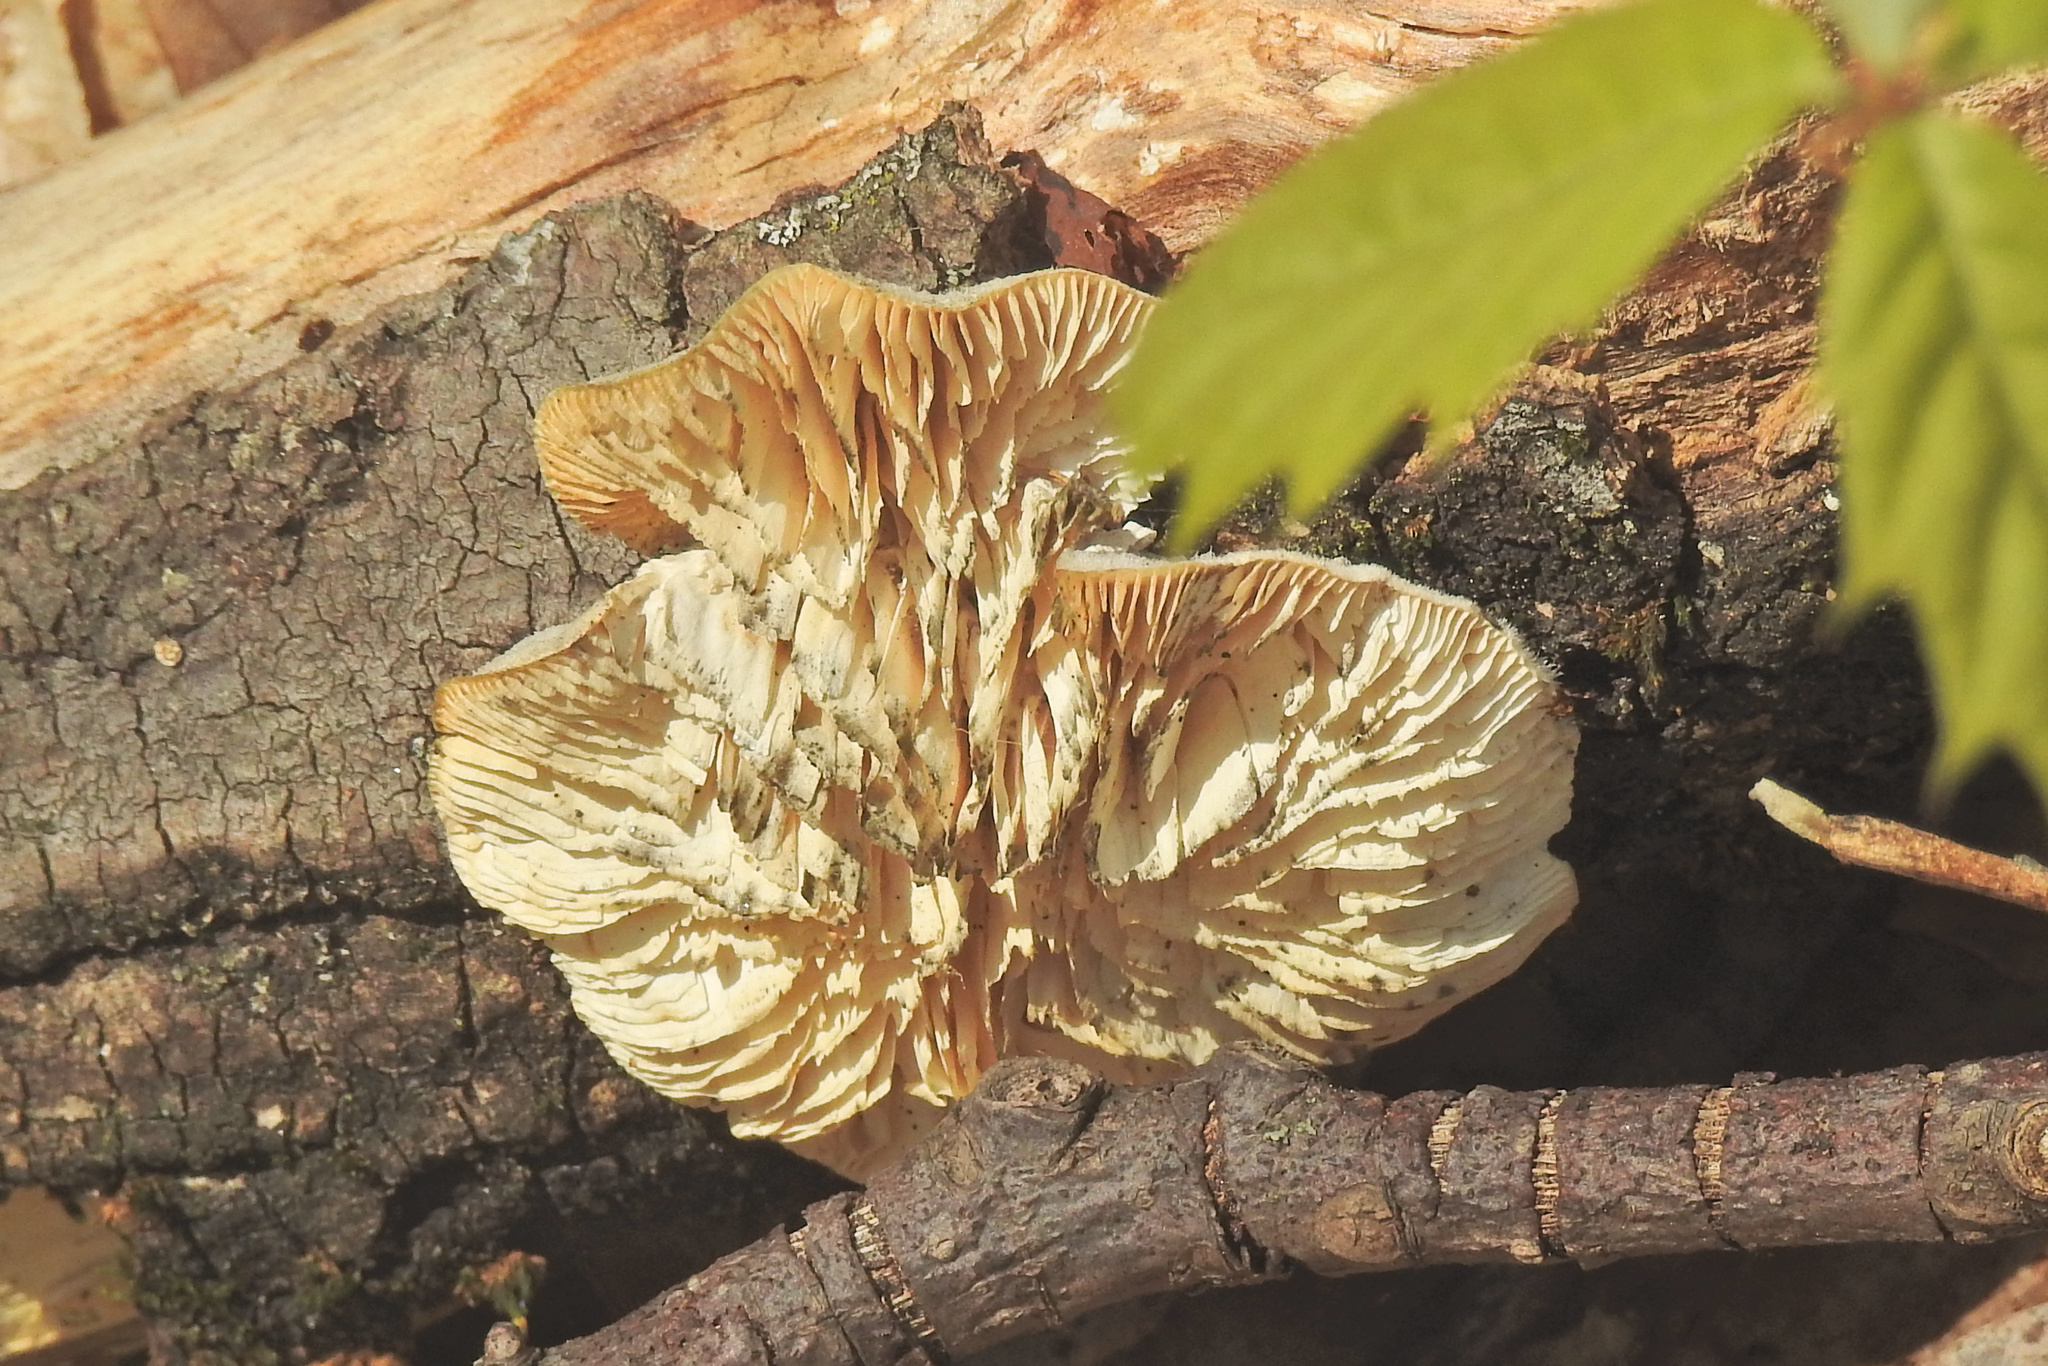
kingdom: Fungi
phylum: Basidiomycota
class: Agaricomycetes
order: Polyporales
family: Polyporaceae
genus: Lenzites
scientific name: Lenzites betulinus
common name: Birch mazegill
